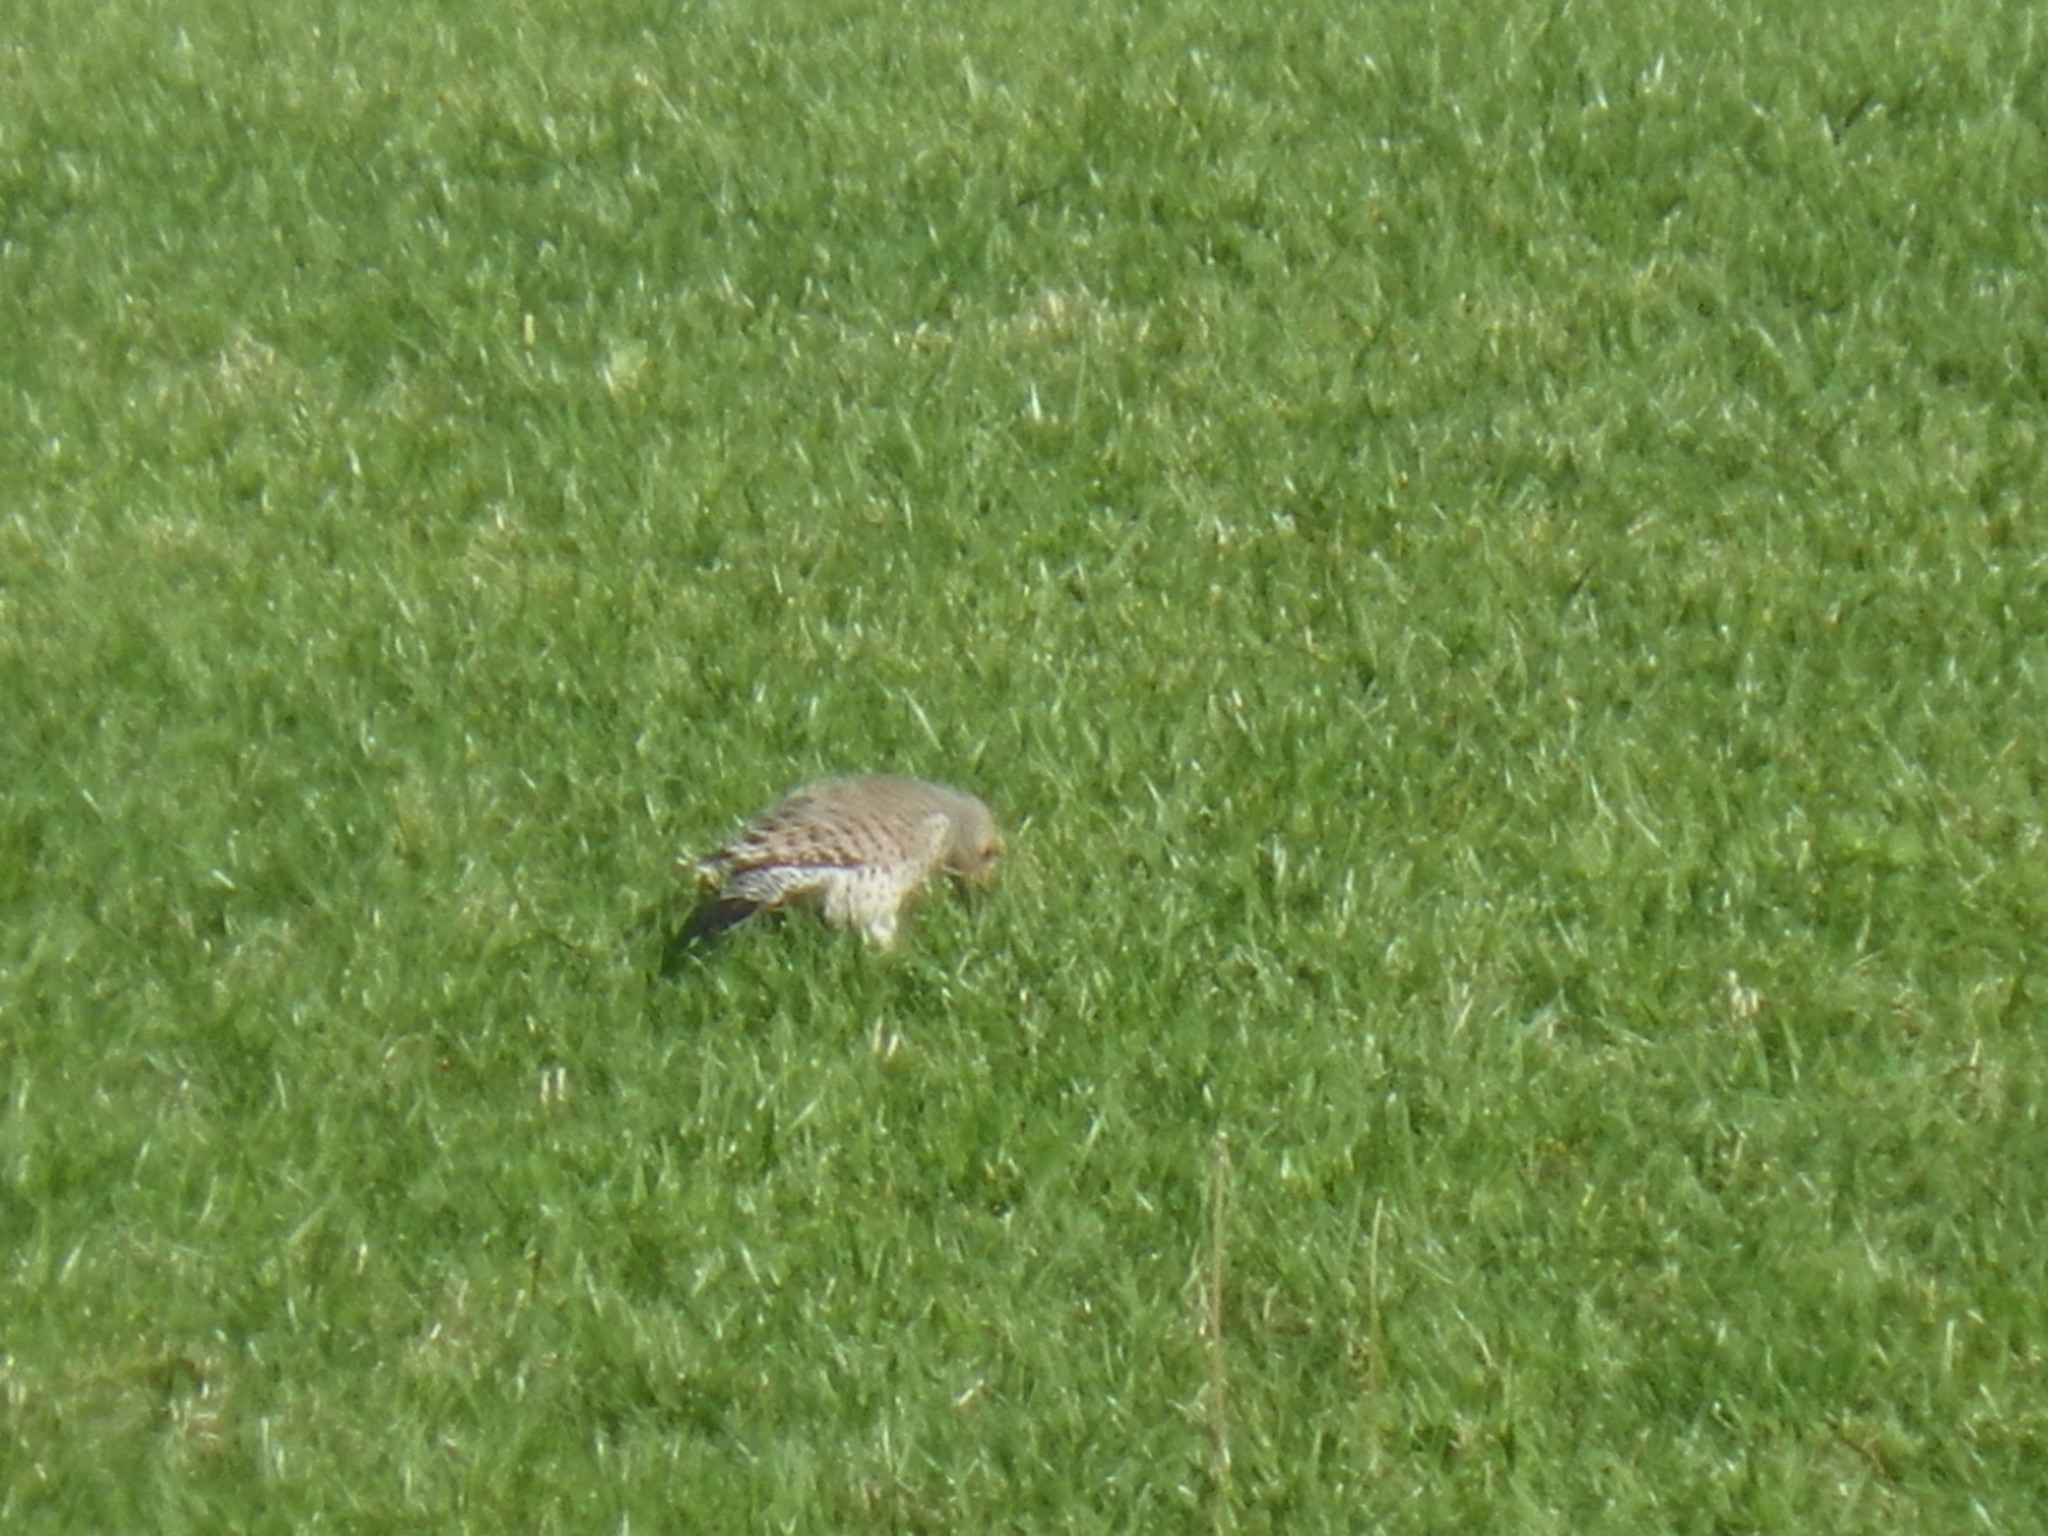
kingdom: Animalia
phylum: Chordata
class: Aves
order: Piciformes
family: Picidae
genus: Colaptes
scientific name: Colaptes auratus
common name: Northern flicker
